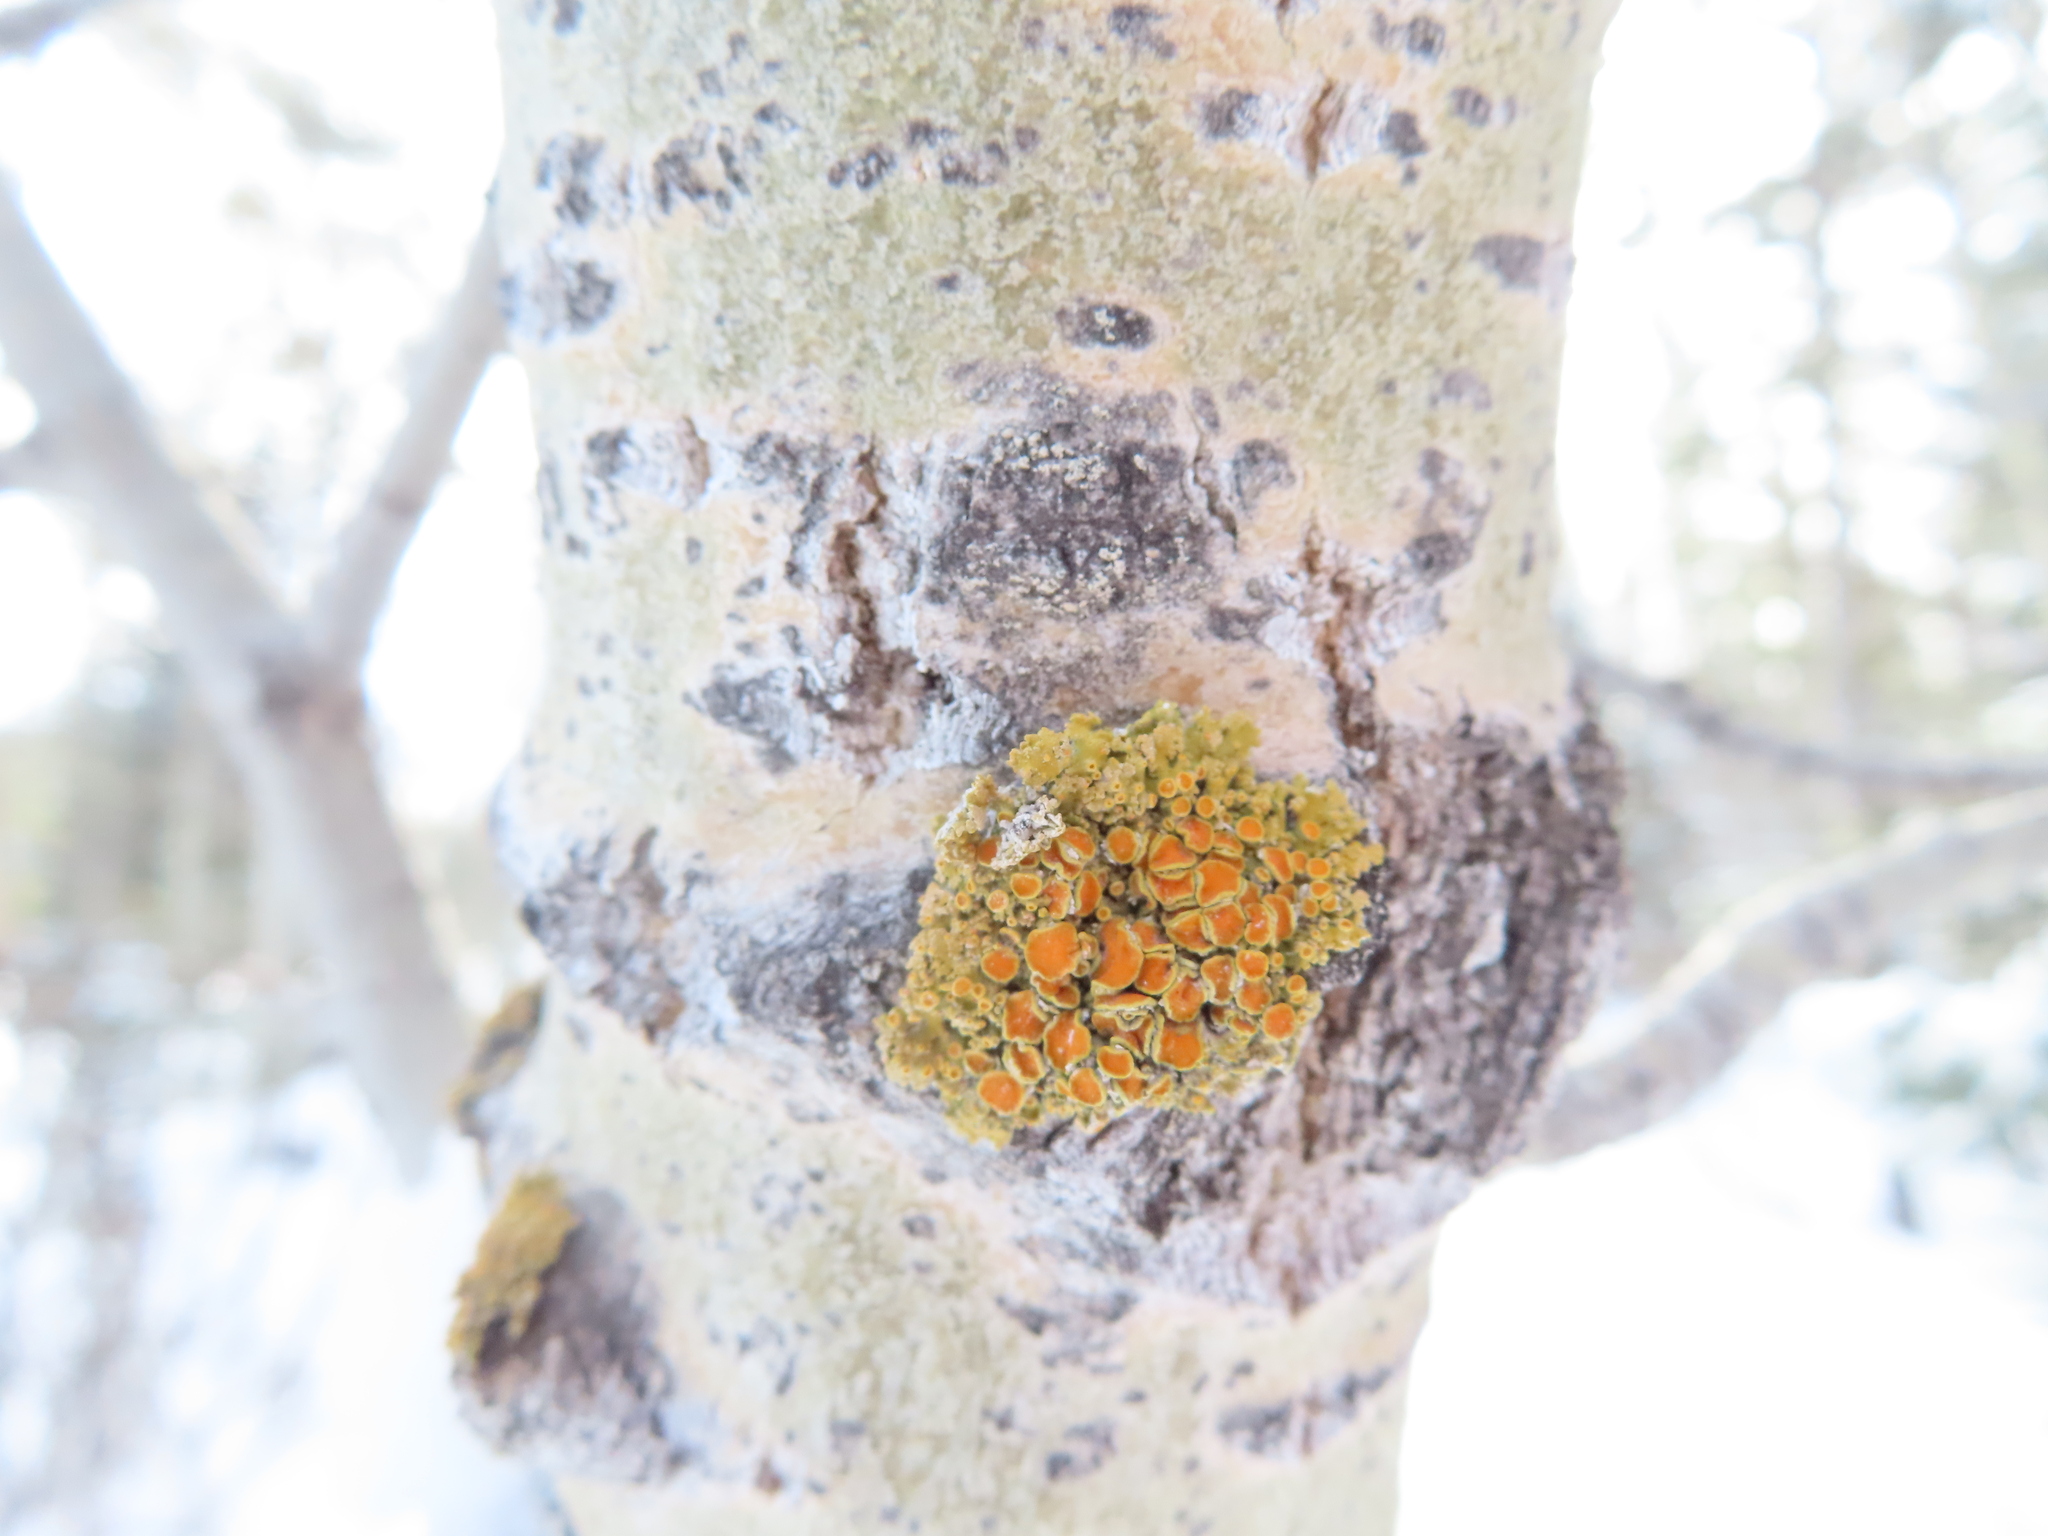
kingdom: Plantae
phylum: Tracheophyta
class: Magnoliopsida
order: Malpighiales
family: Salicaceae
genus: Populus
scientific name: Populus tremuloides
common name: Quaking aspen
